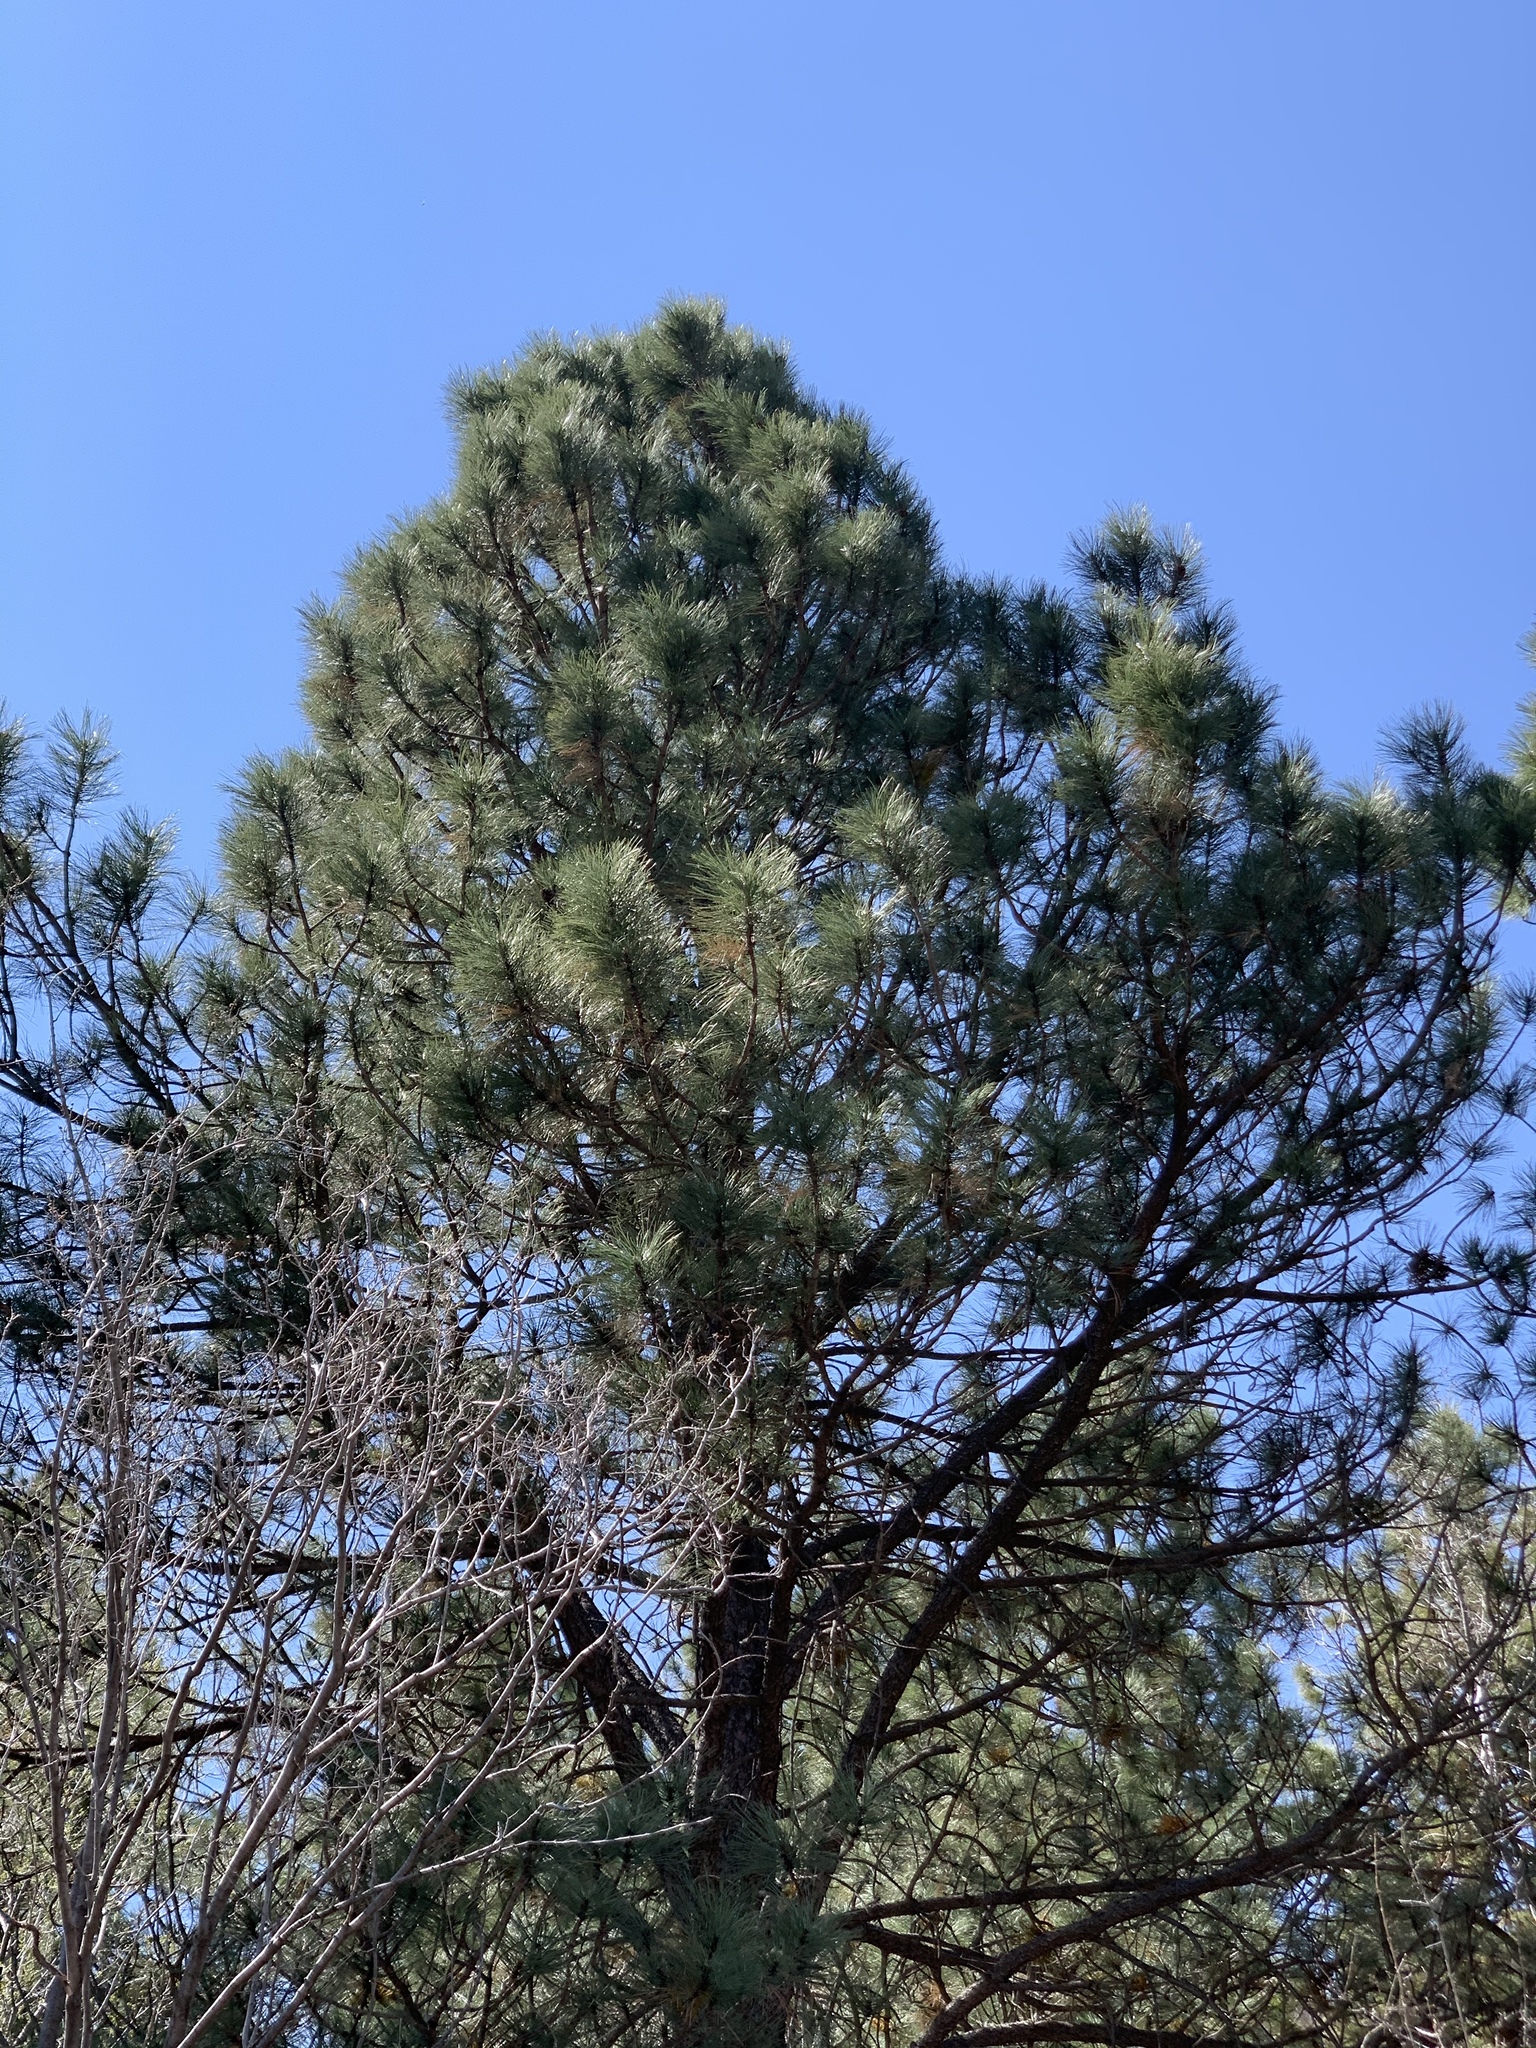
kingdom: Plantae
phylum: Tracheophyta
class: Pinopsida
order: Pinales
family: Pinaceae
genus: Pinus
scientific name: Pinus ponderosa
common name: Western yellow-pine
